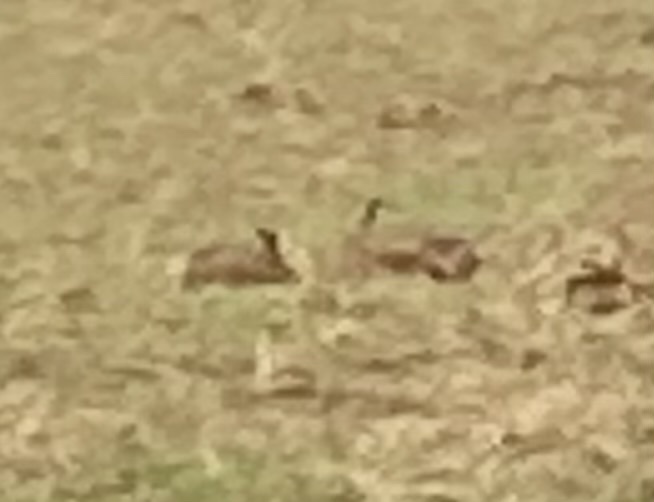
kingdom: Animalia
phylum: Chordata
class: Mammalia
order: Lagomorpha
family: Leporidae
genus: Lepus
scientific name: Lepus europaeus
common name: European hare
